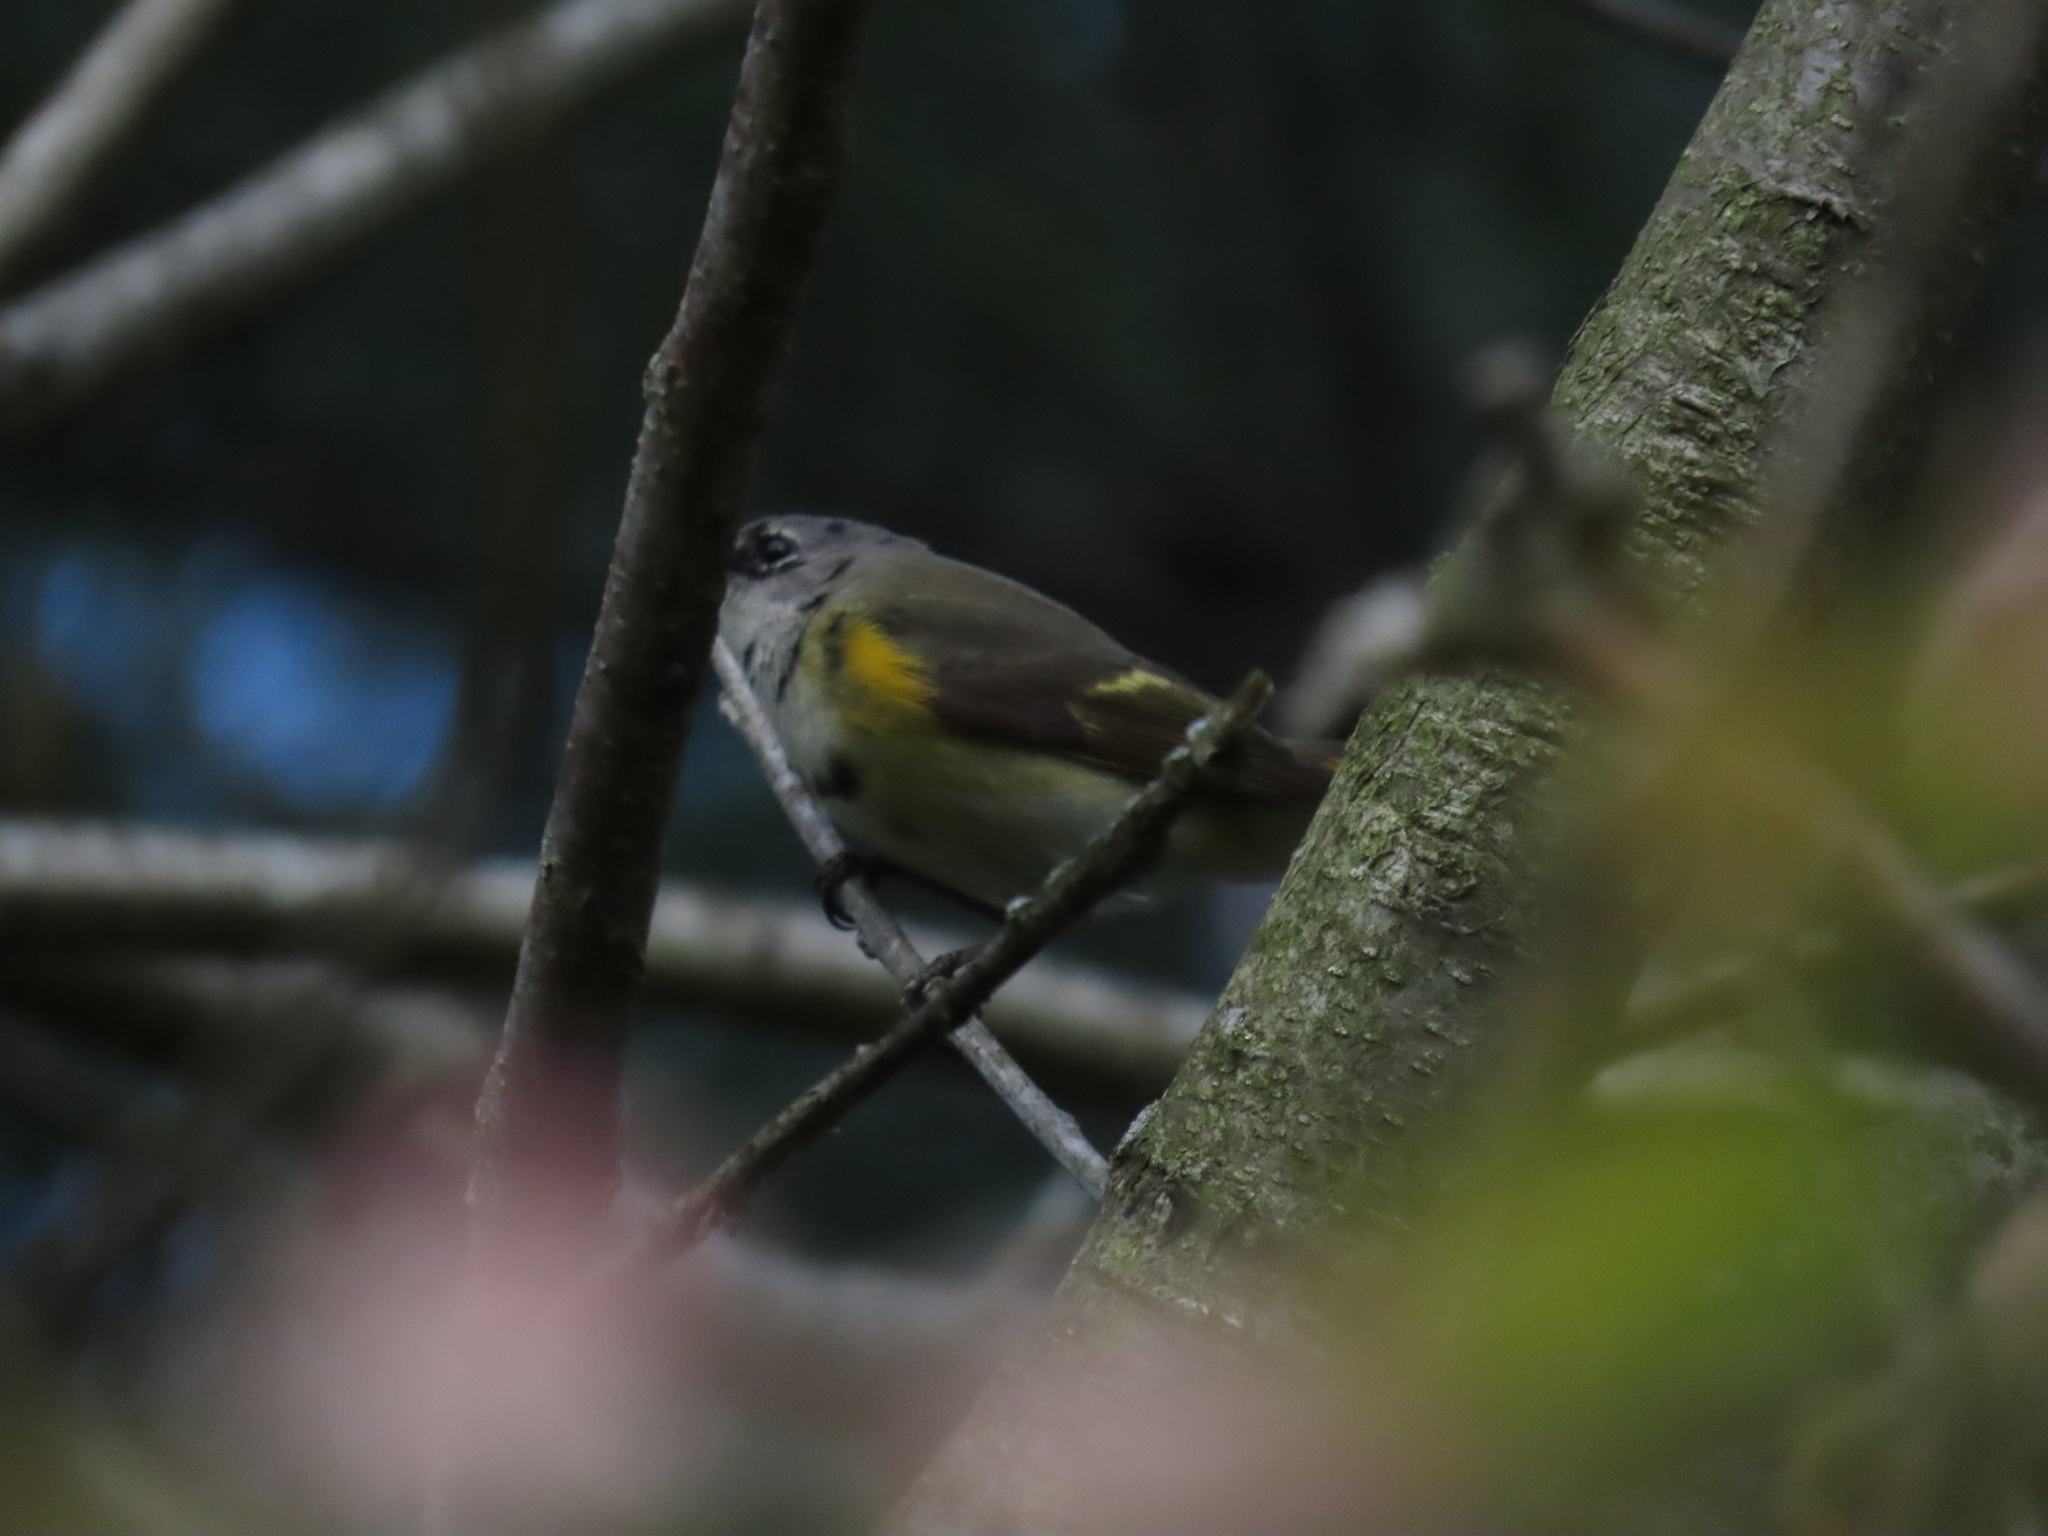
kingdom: Animalia
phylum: Chordata
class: Aves
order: Passeriformes
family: Parulidae
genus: Setophaga
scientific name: Setophaga ruticilla
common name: American redstart
